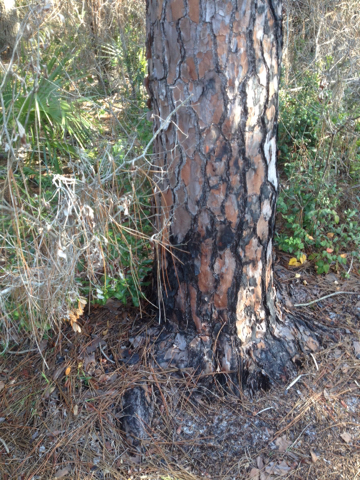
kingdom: Plantae
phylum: Tracheophyta
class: Pinopsida
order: Pinales
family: Pinaceae
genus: Pinus
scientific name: Pinus elliottii
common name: Slash pine
